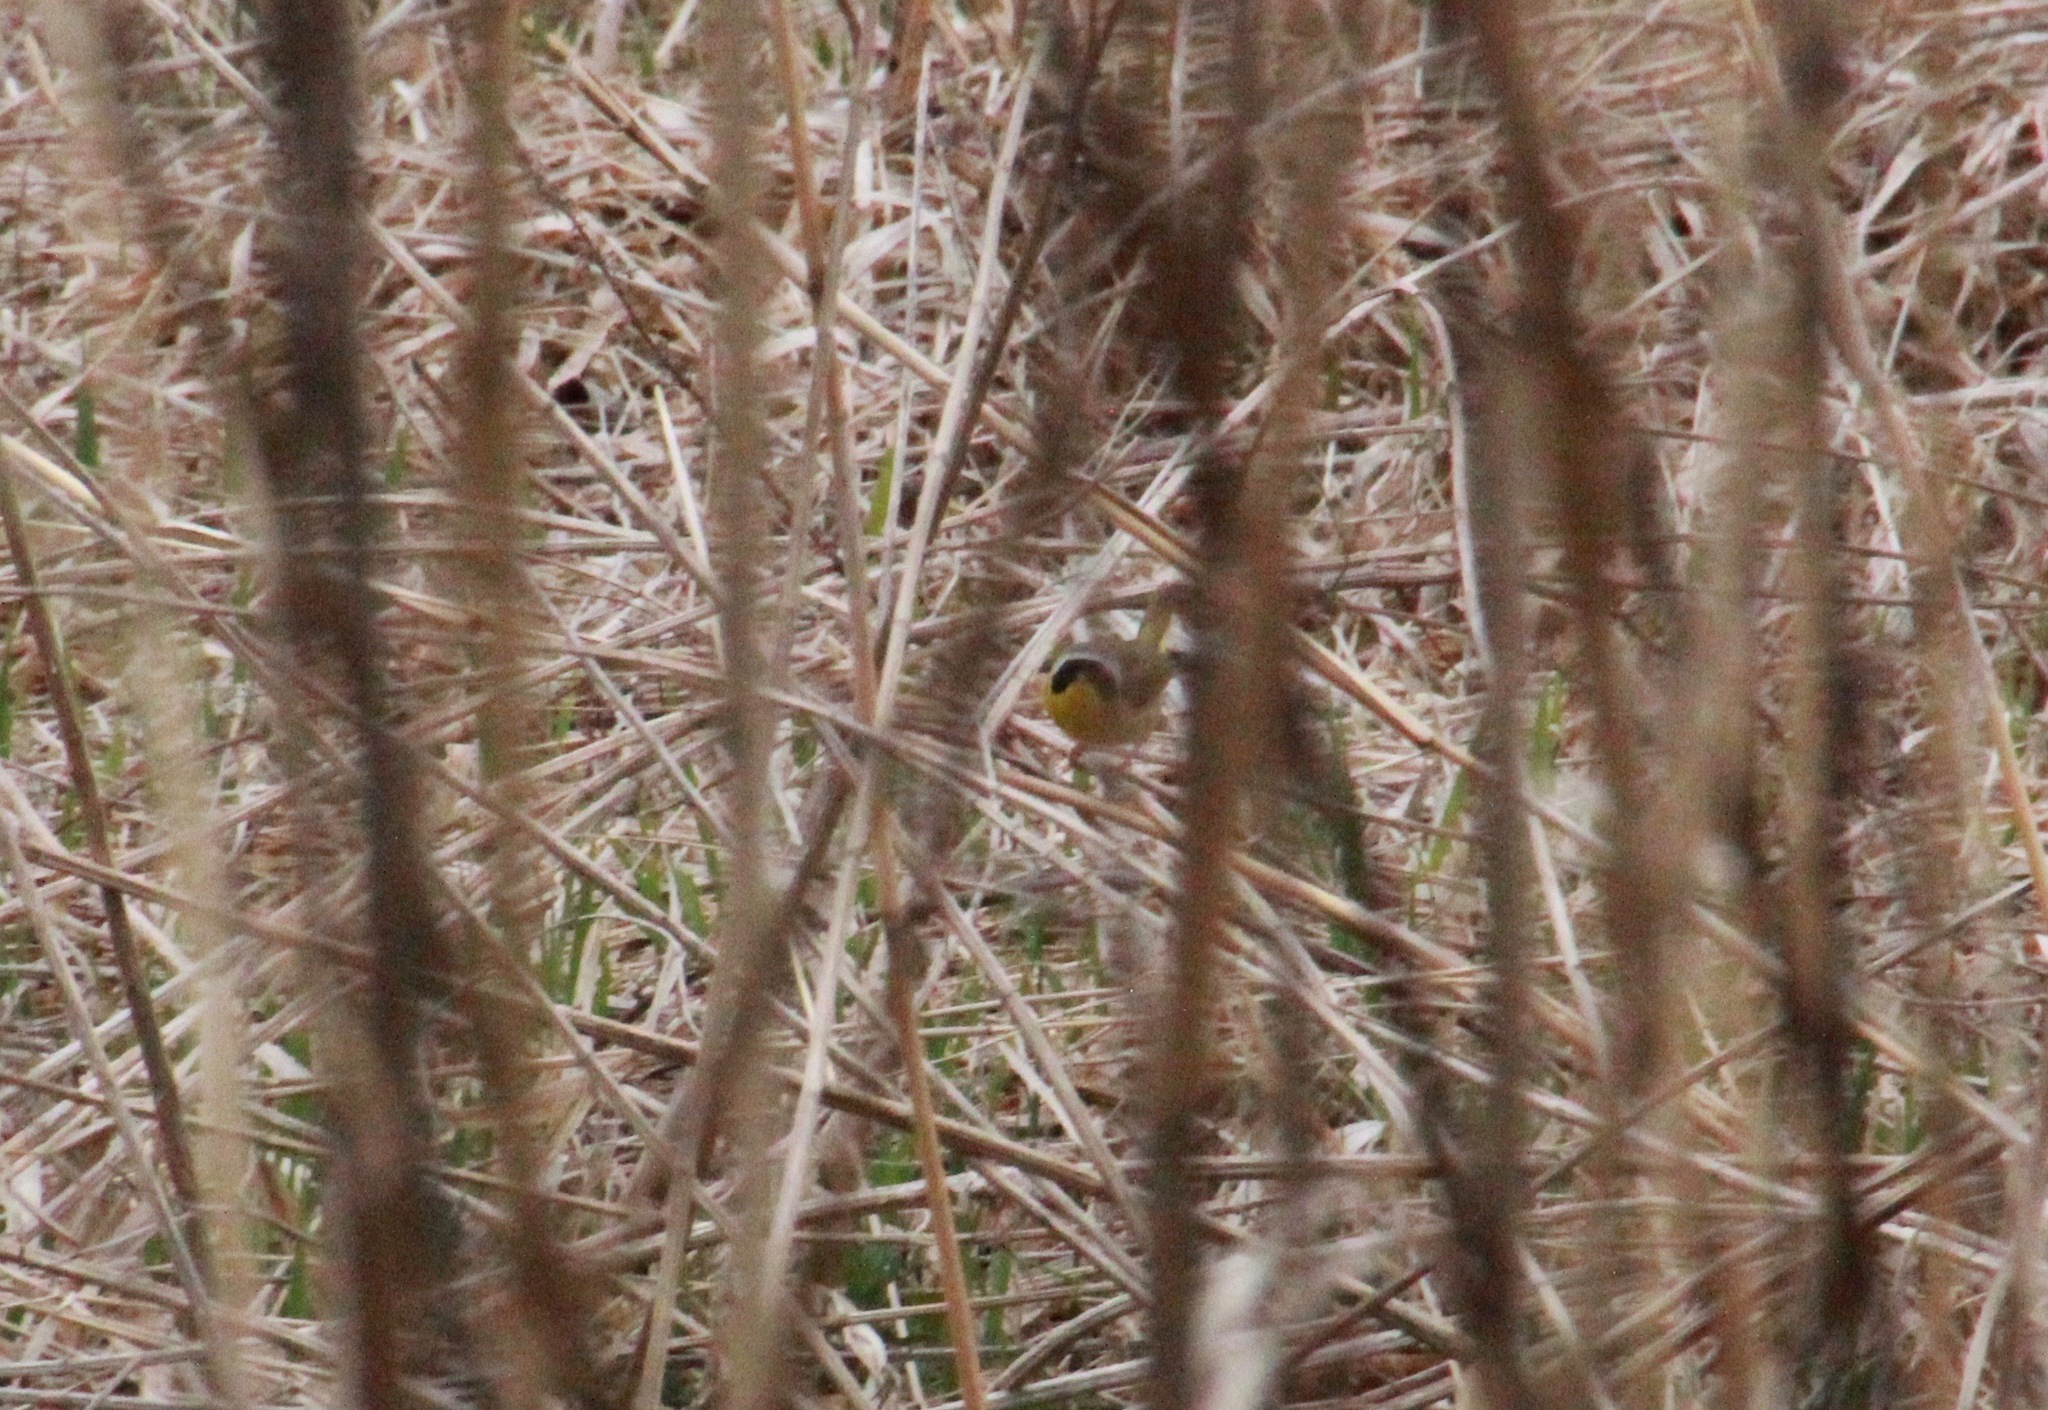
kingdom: Animalia
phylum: Chordata
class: Aves
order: Passeriformes
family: Parulidae
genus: Geothlypis
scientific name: Geothlypis trichas
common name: Common yellowthroat
